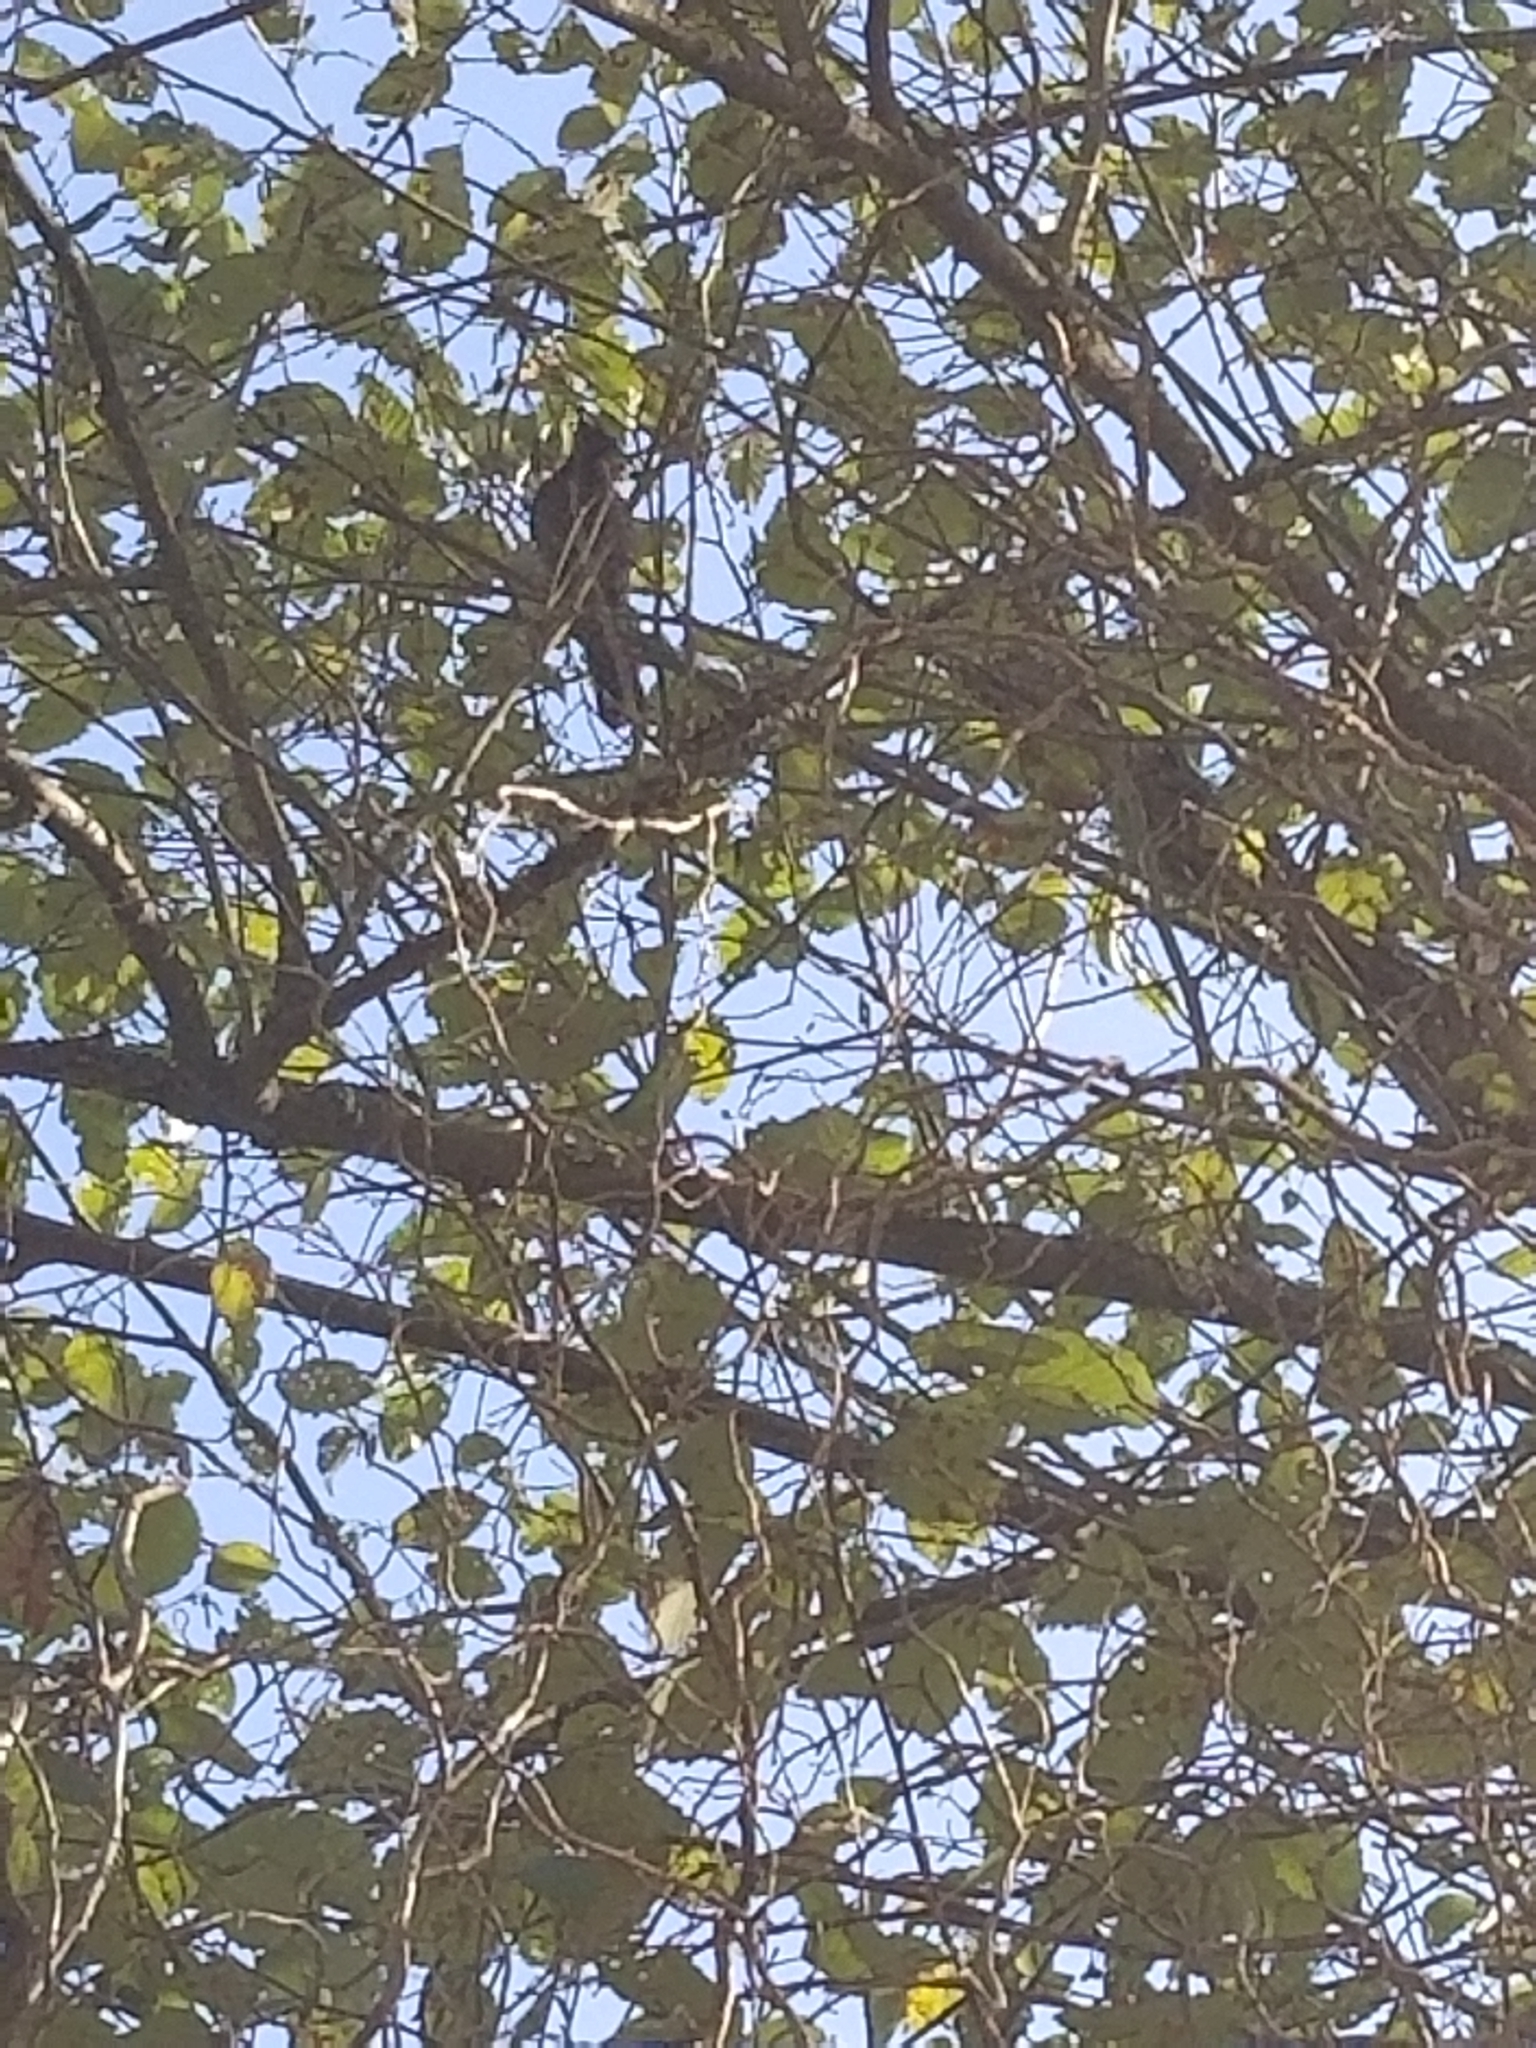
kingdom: Animalia
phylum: Chordata
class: Aves
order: Passeriformes
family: Corvidae
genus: Cyanocitta
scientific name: Cyanocitta stelleri
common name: Steller's jay
